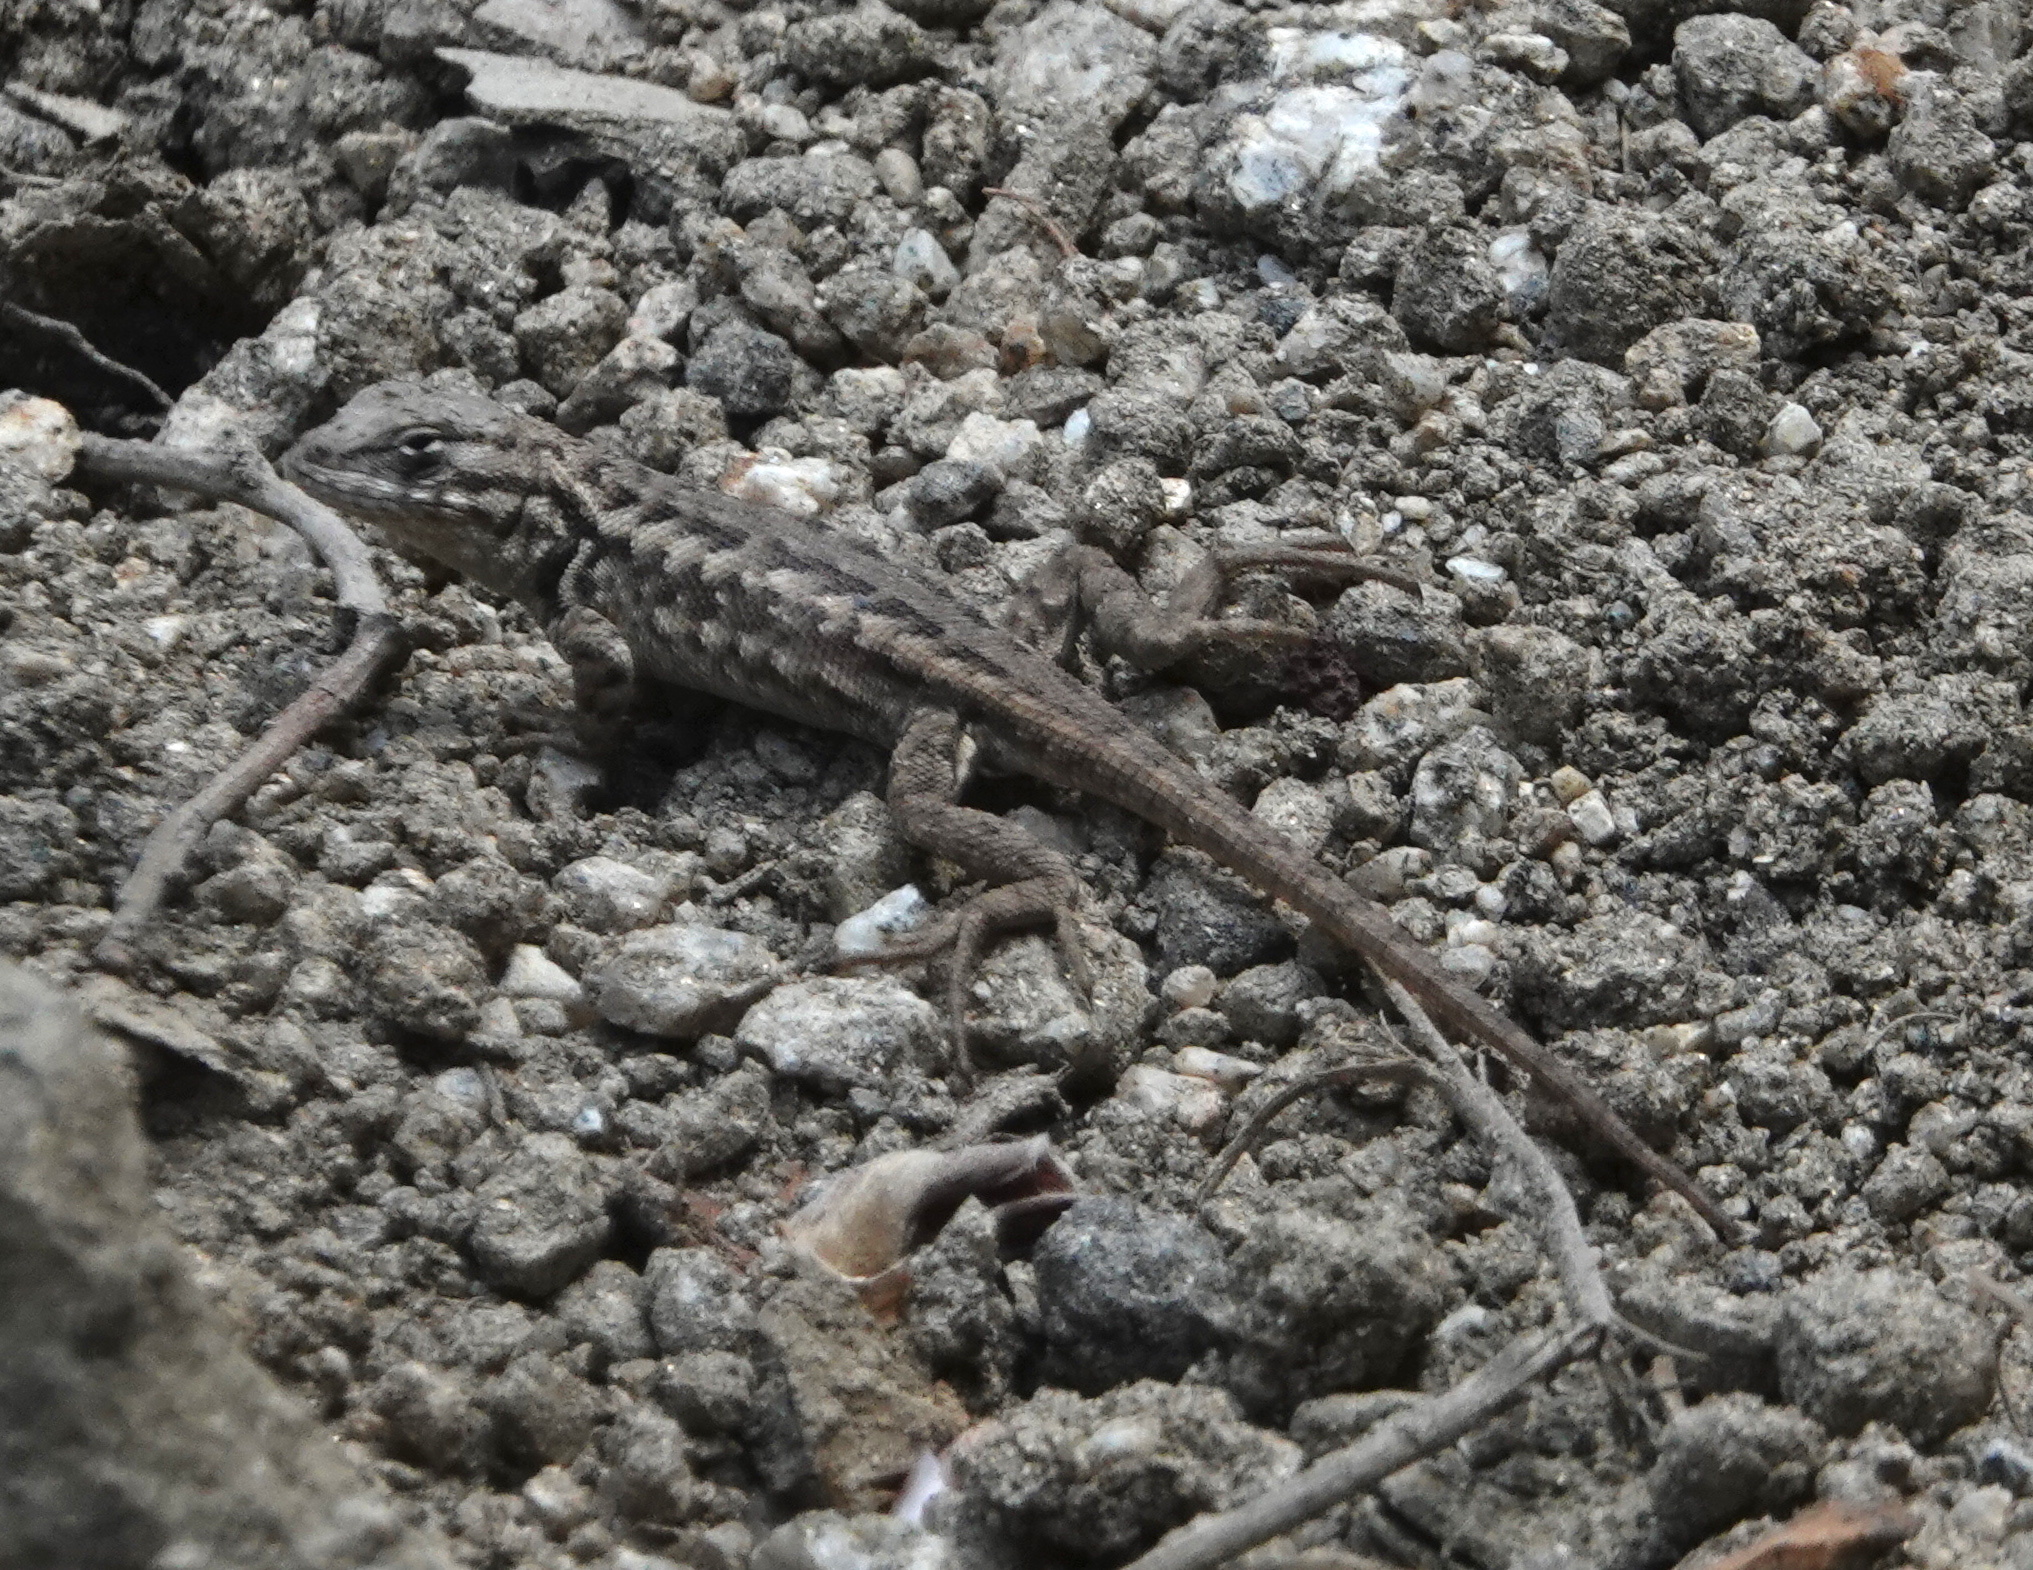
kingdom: Animalia
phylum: Chordata
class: Squamata
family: Phrynosomatidae
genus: Sceloporus
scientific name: Sceloporus graciosus
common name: Sagebrush lizard
